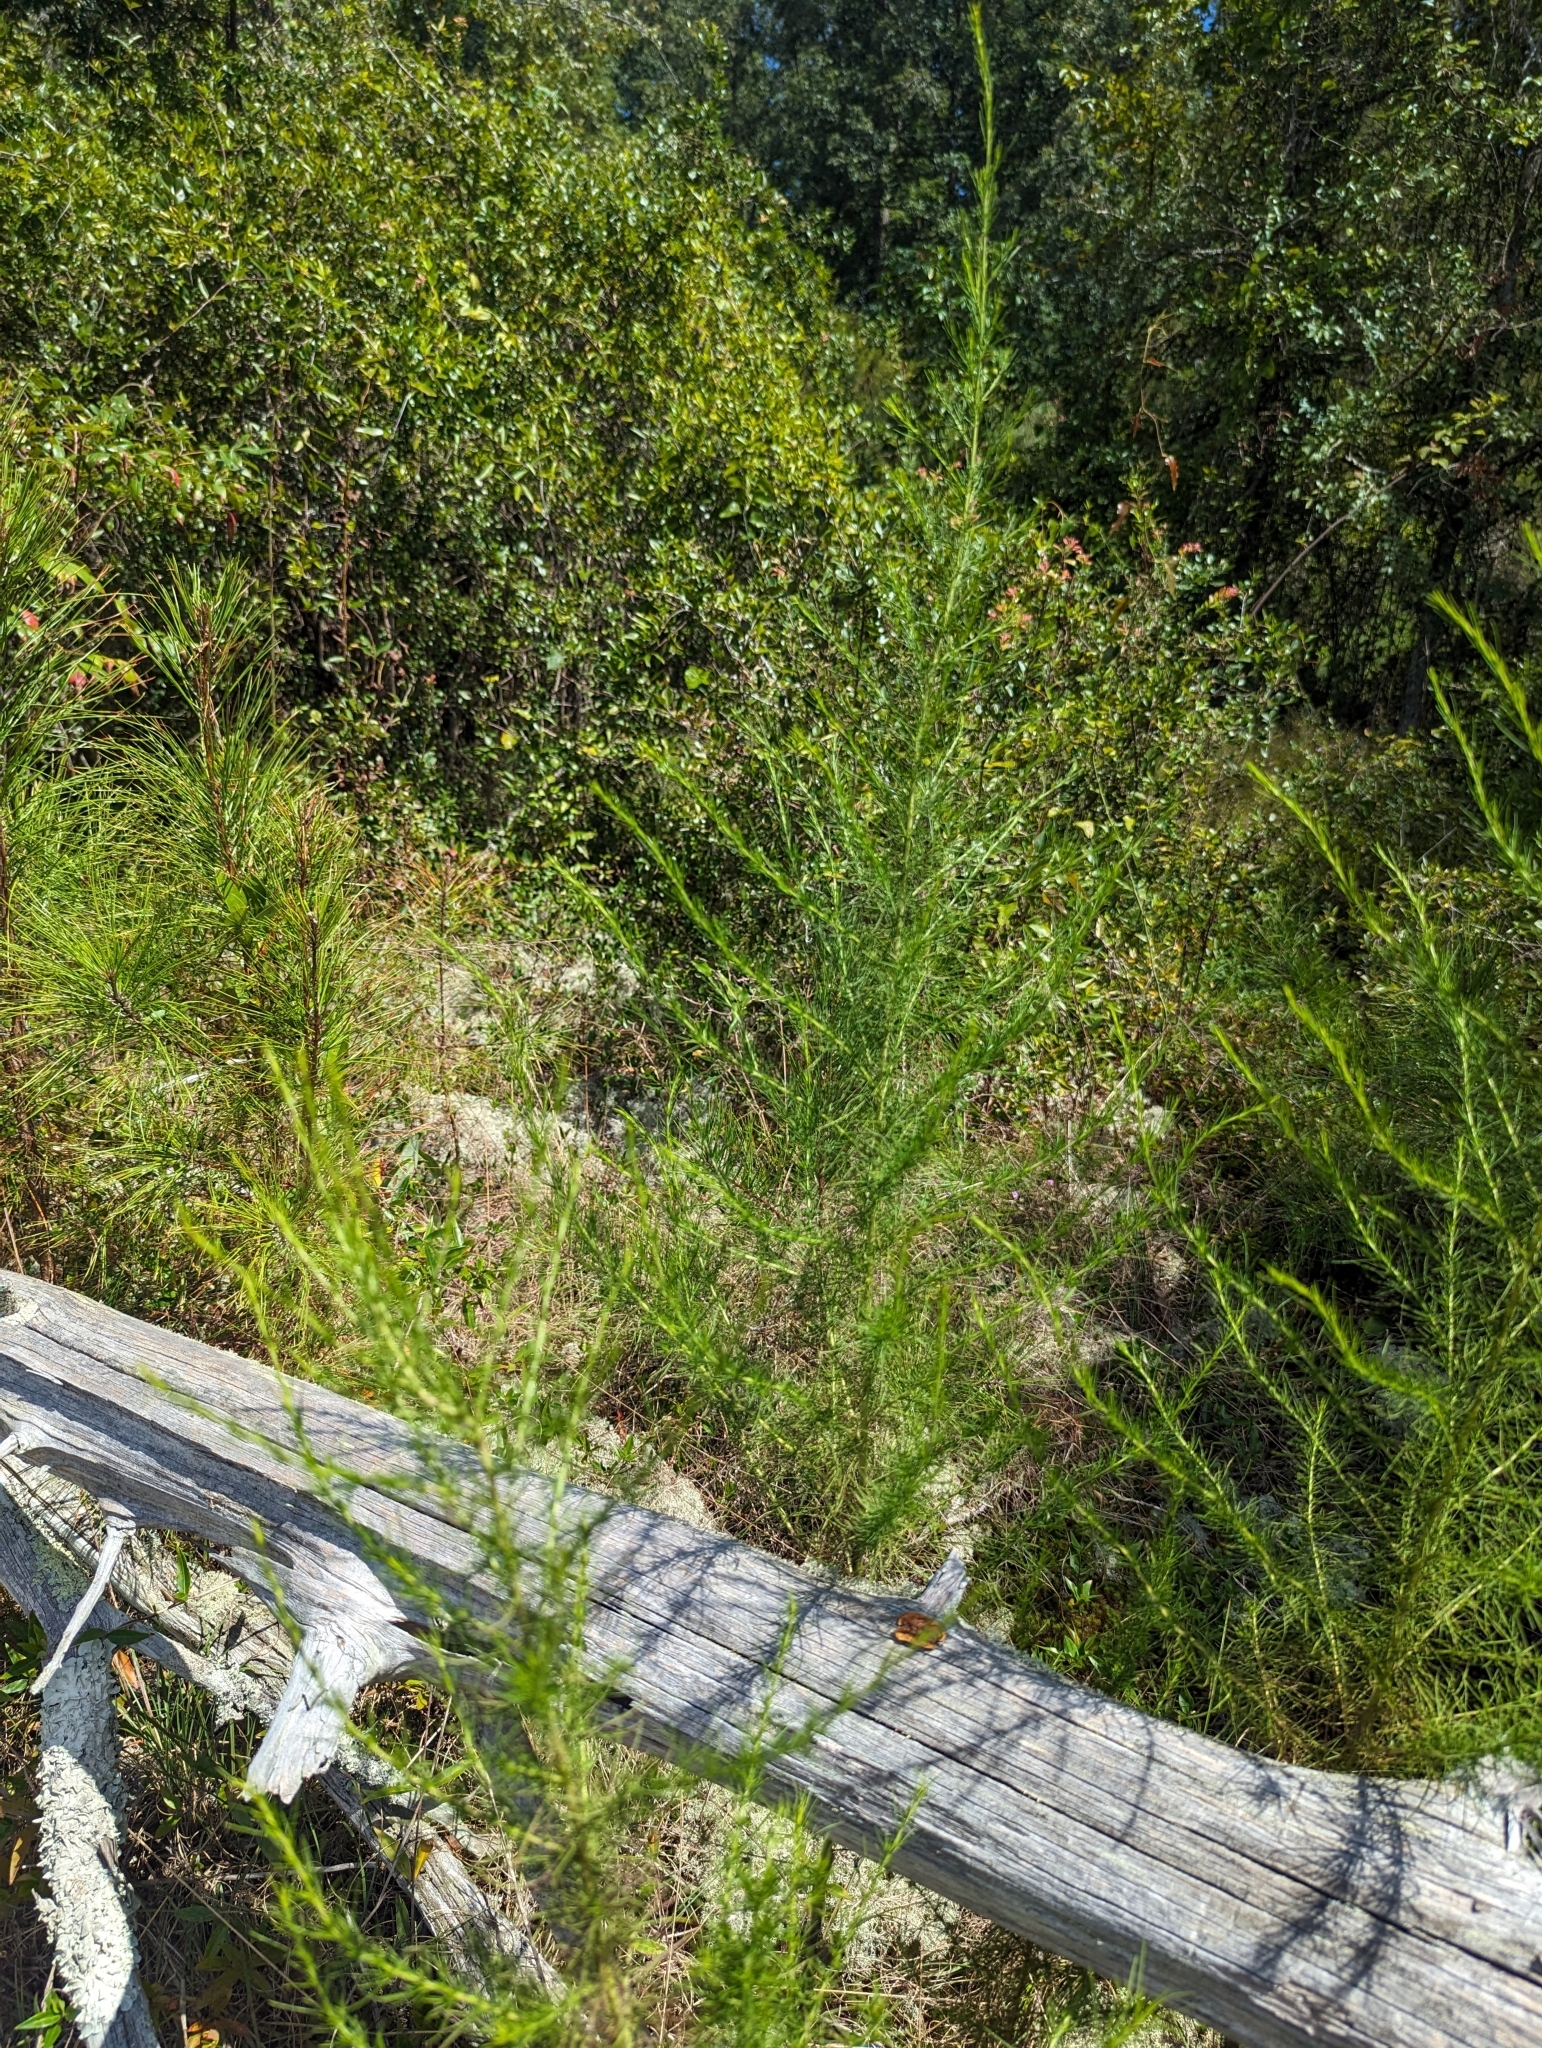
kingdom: Plantae
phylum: Tracheophyta
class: Magnoliopsida
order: Asterales
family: Asteraceae
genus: Eupatorium
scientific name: Eupatorium capillifolium
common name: Dog-fennel
